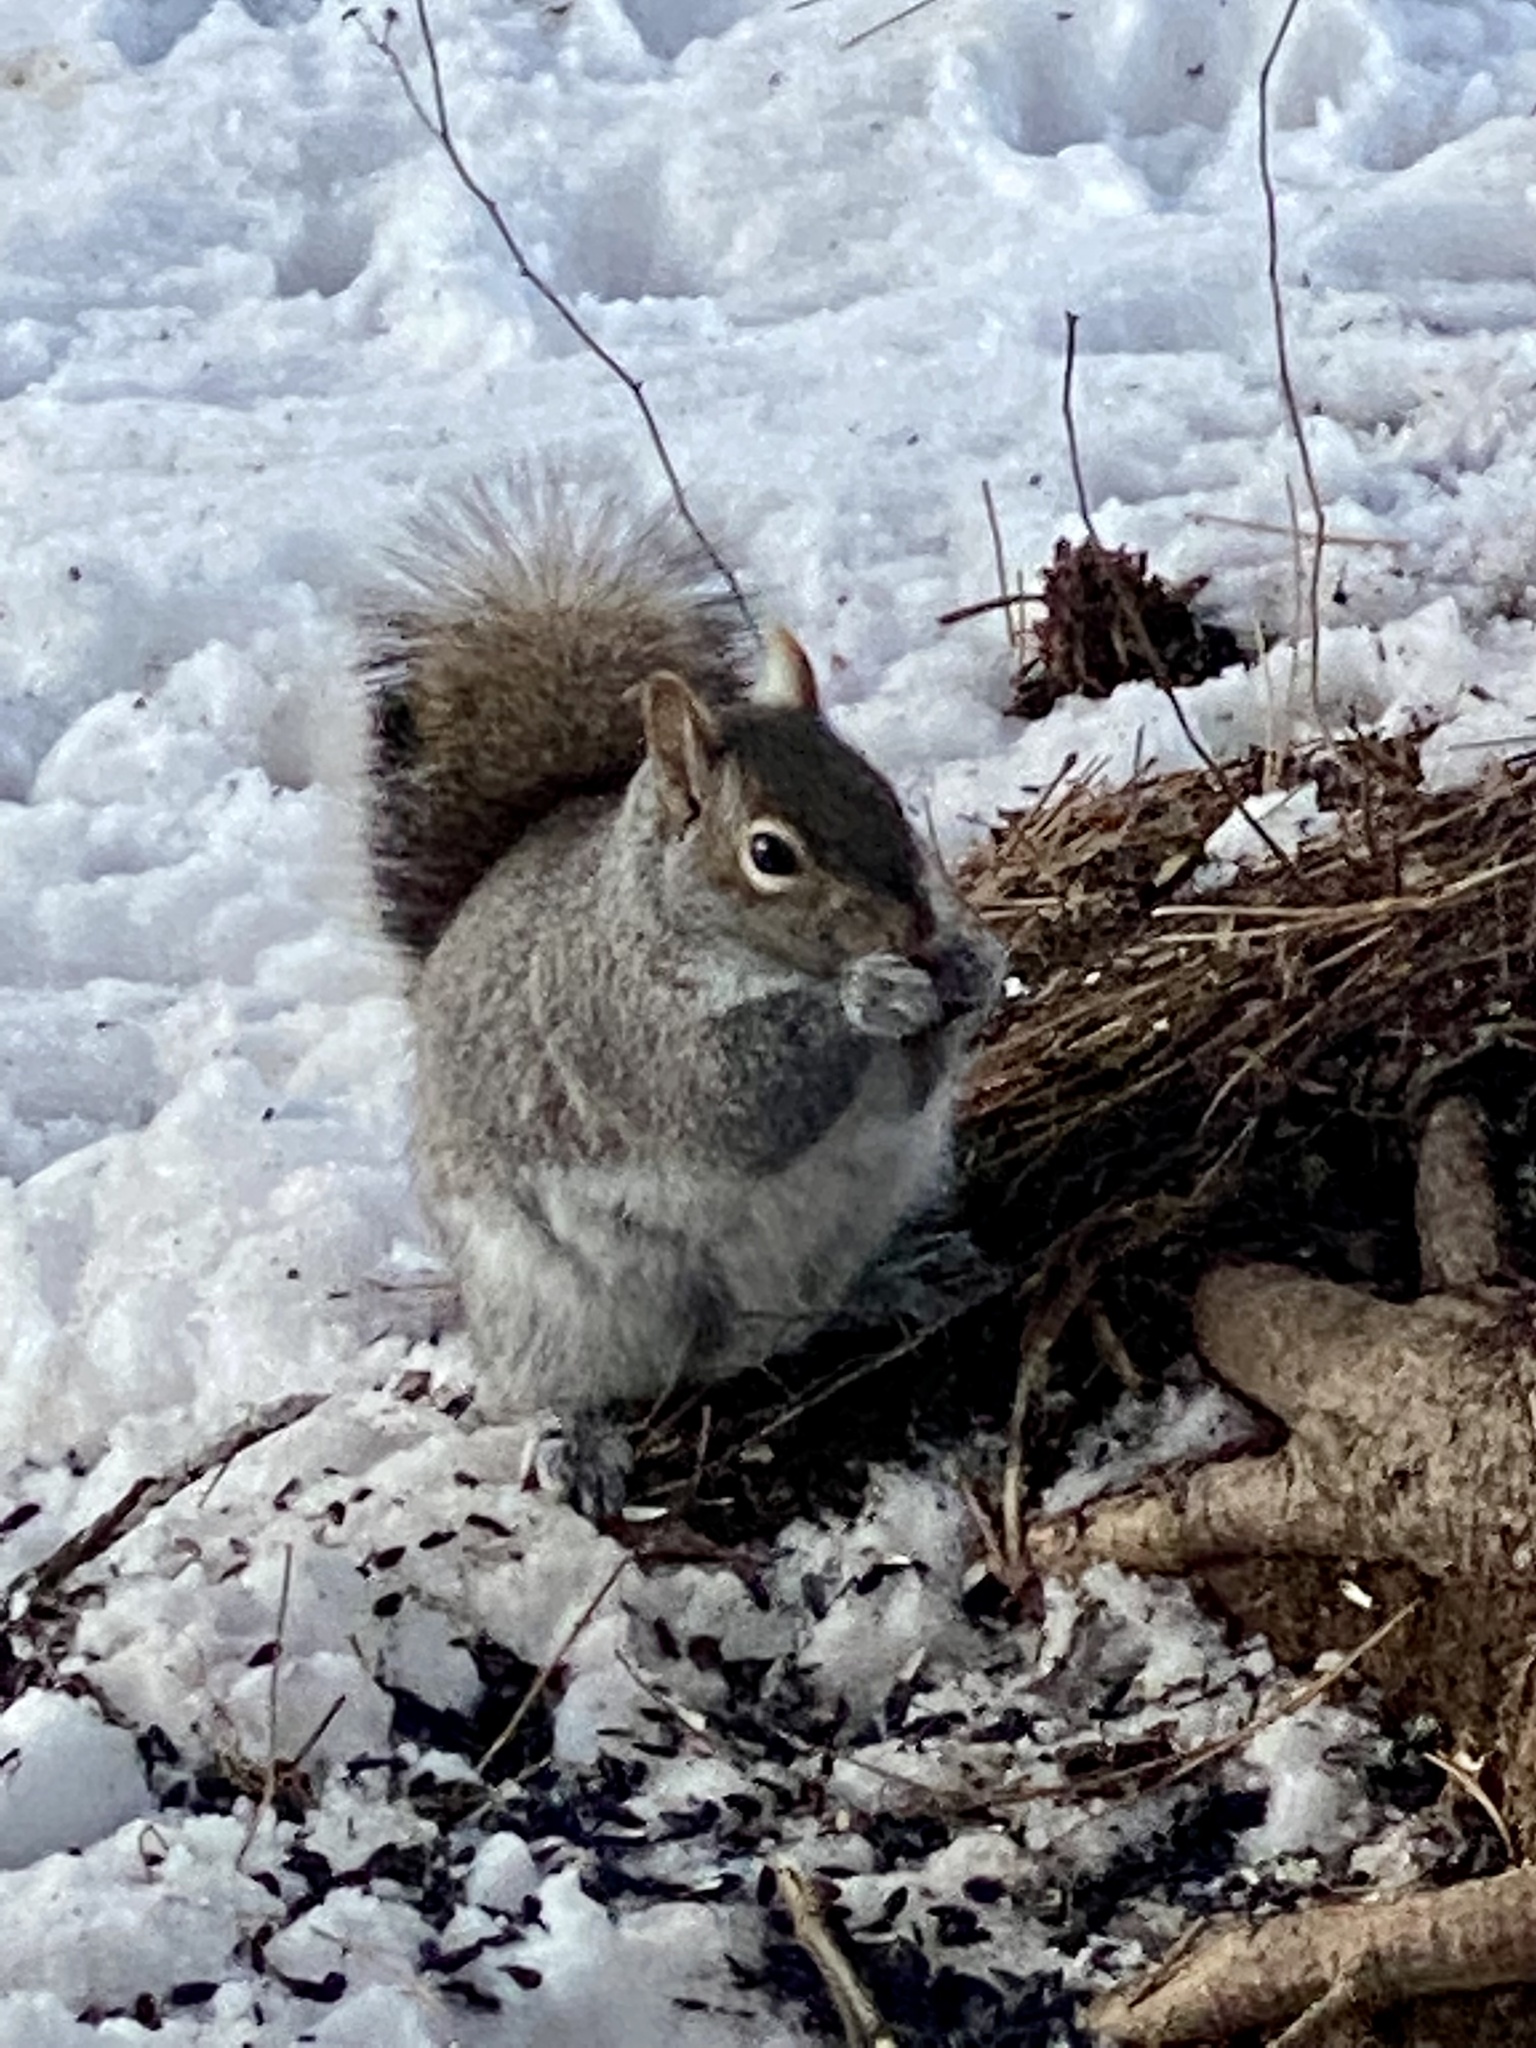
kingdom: Animalia
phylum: Chordata
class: Mammalia
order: Rodentia
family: Sciuridae
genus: Sciurus
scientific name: Sciurus carolinensis
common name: Eastern gray squirrel
